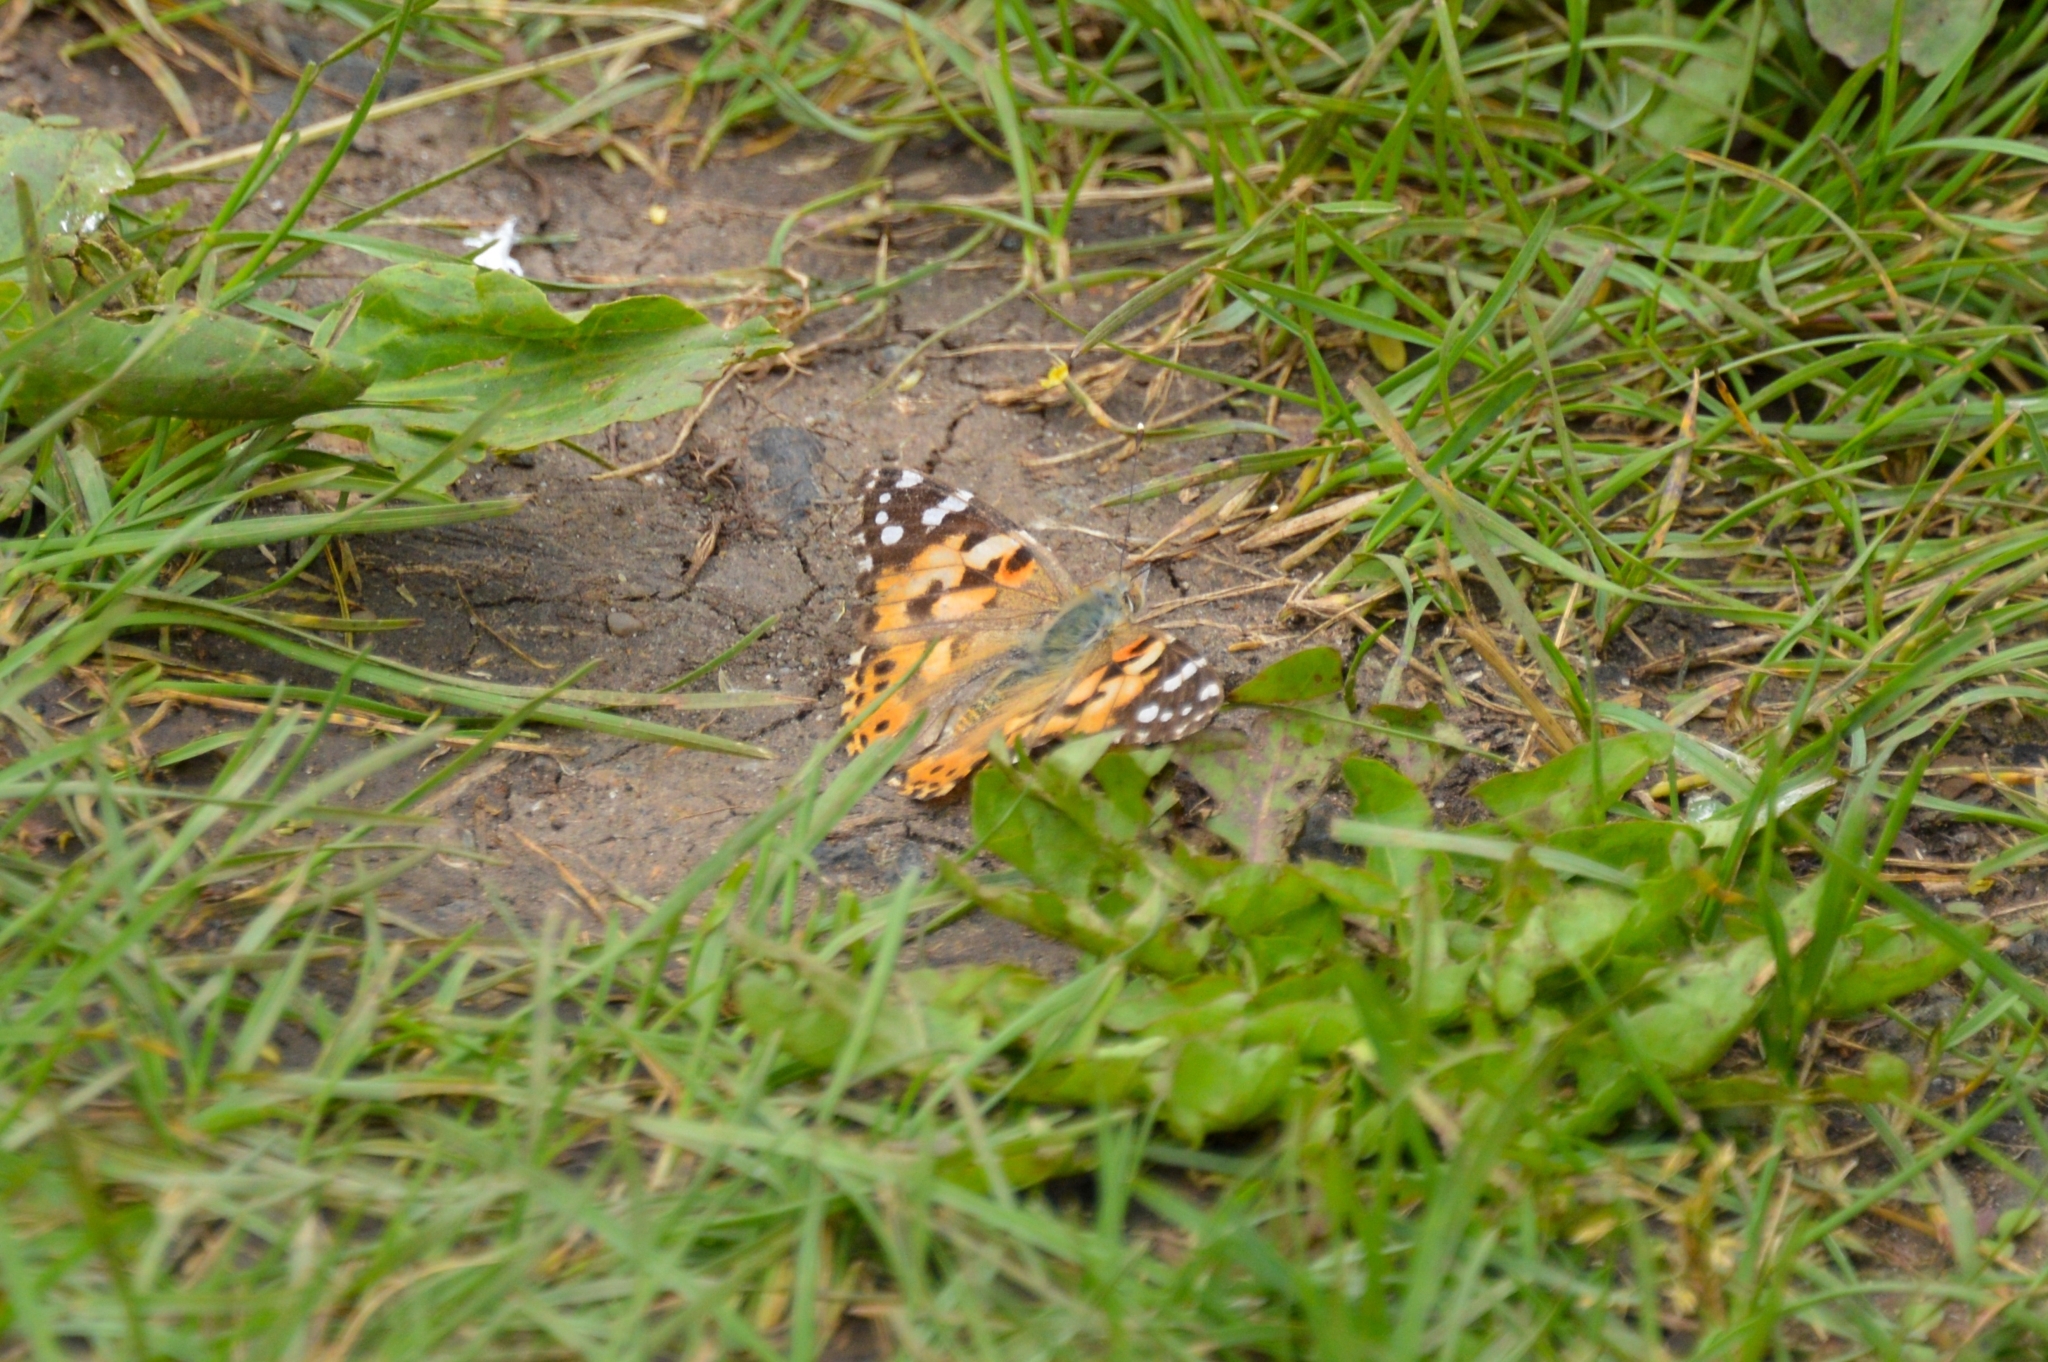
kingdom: Animalia
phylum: Arthropoda
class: Insecta
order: Lepidoptera
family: Nymphalidae
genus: Vanessa
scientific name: Vanessa cardui
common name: Painted lady
